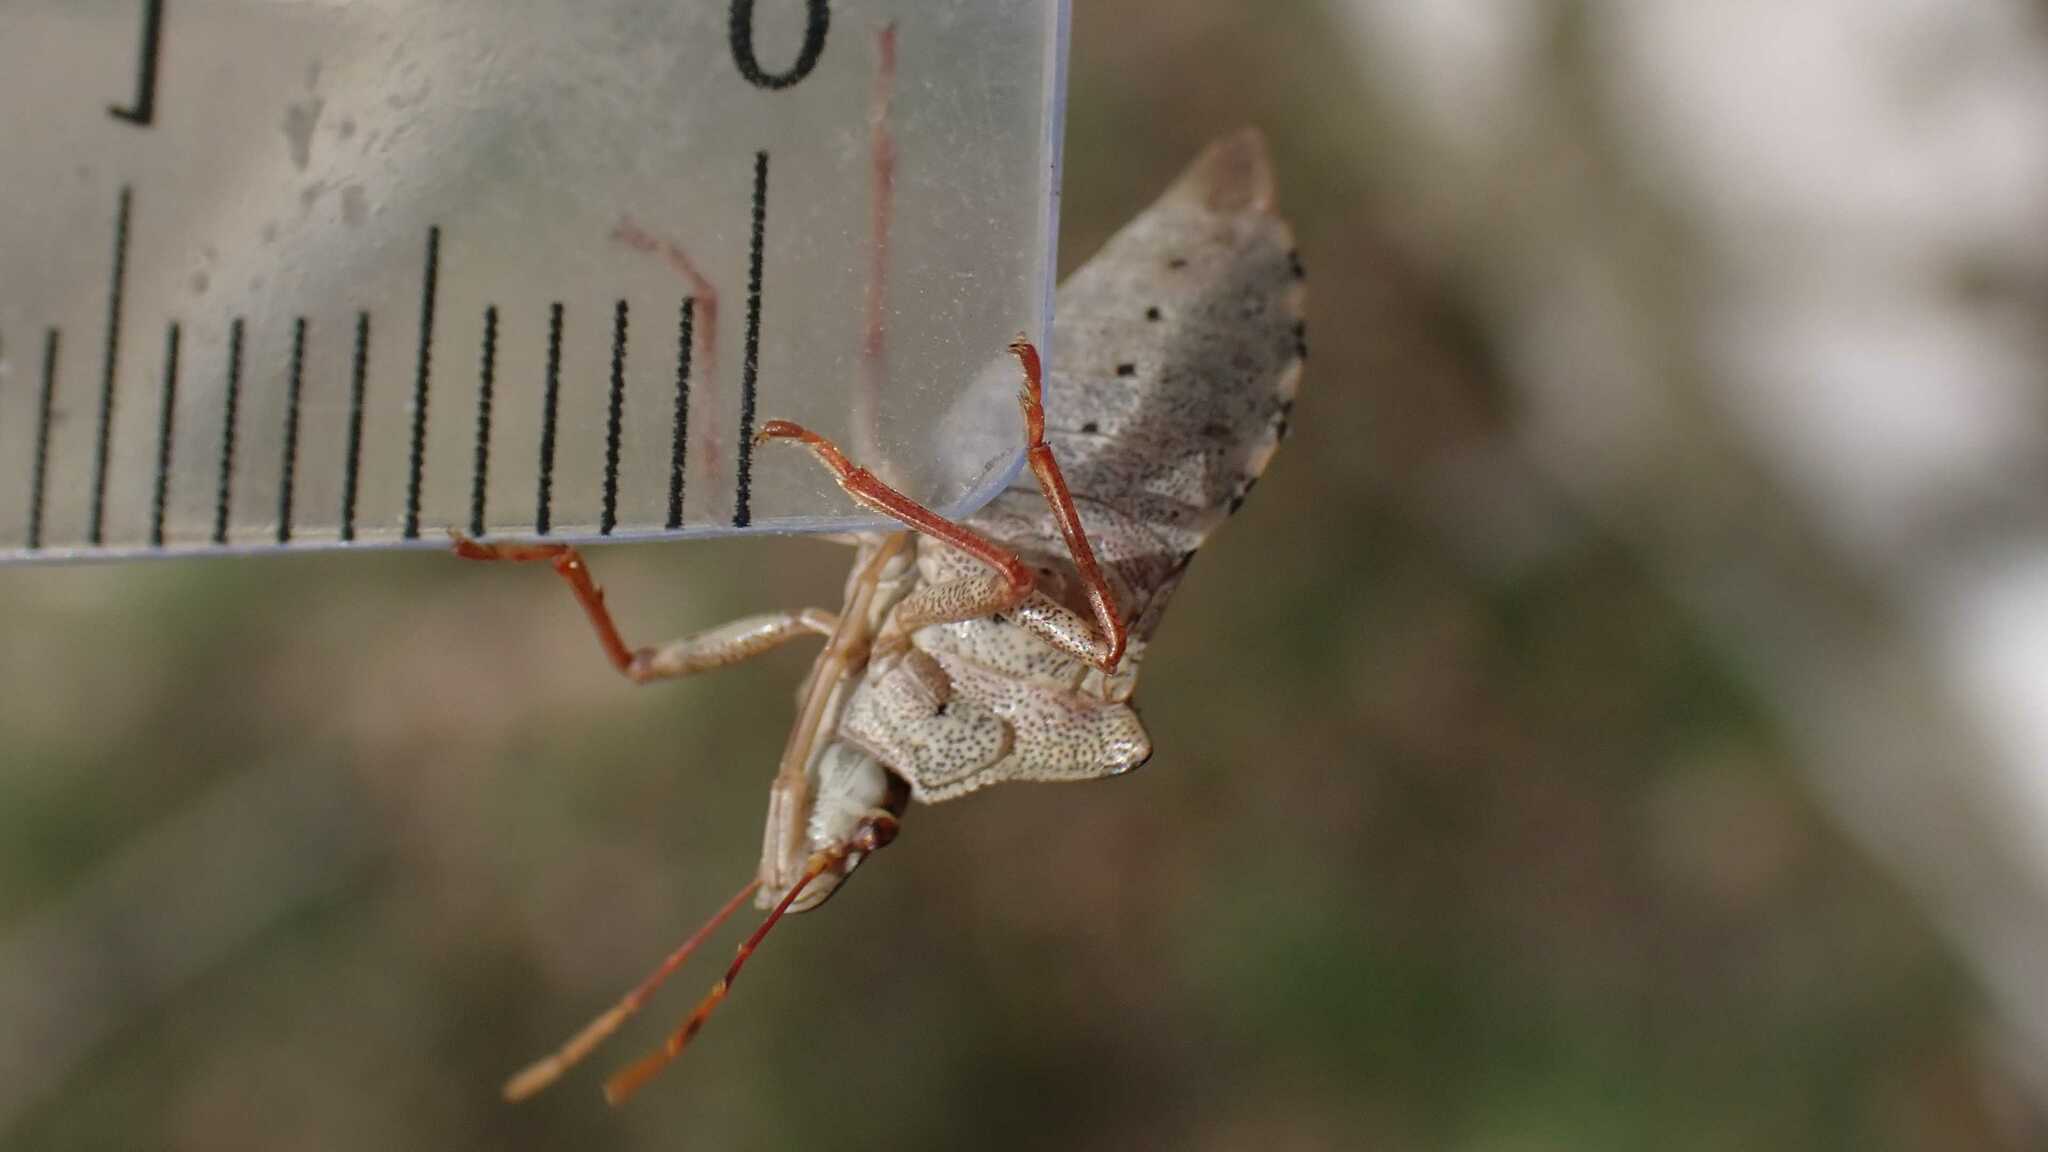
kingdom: Animalia
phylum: Arthropoda
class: Insecta
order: Hemiptera
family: Pentatomidae
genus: Arma
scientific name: Arma custos
